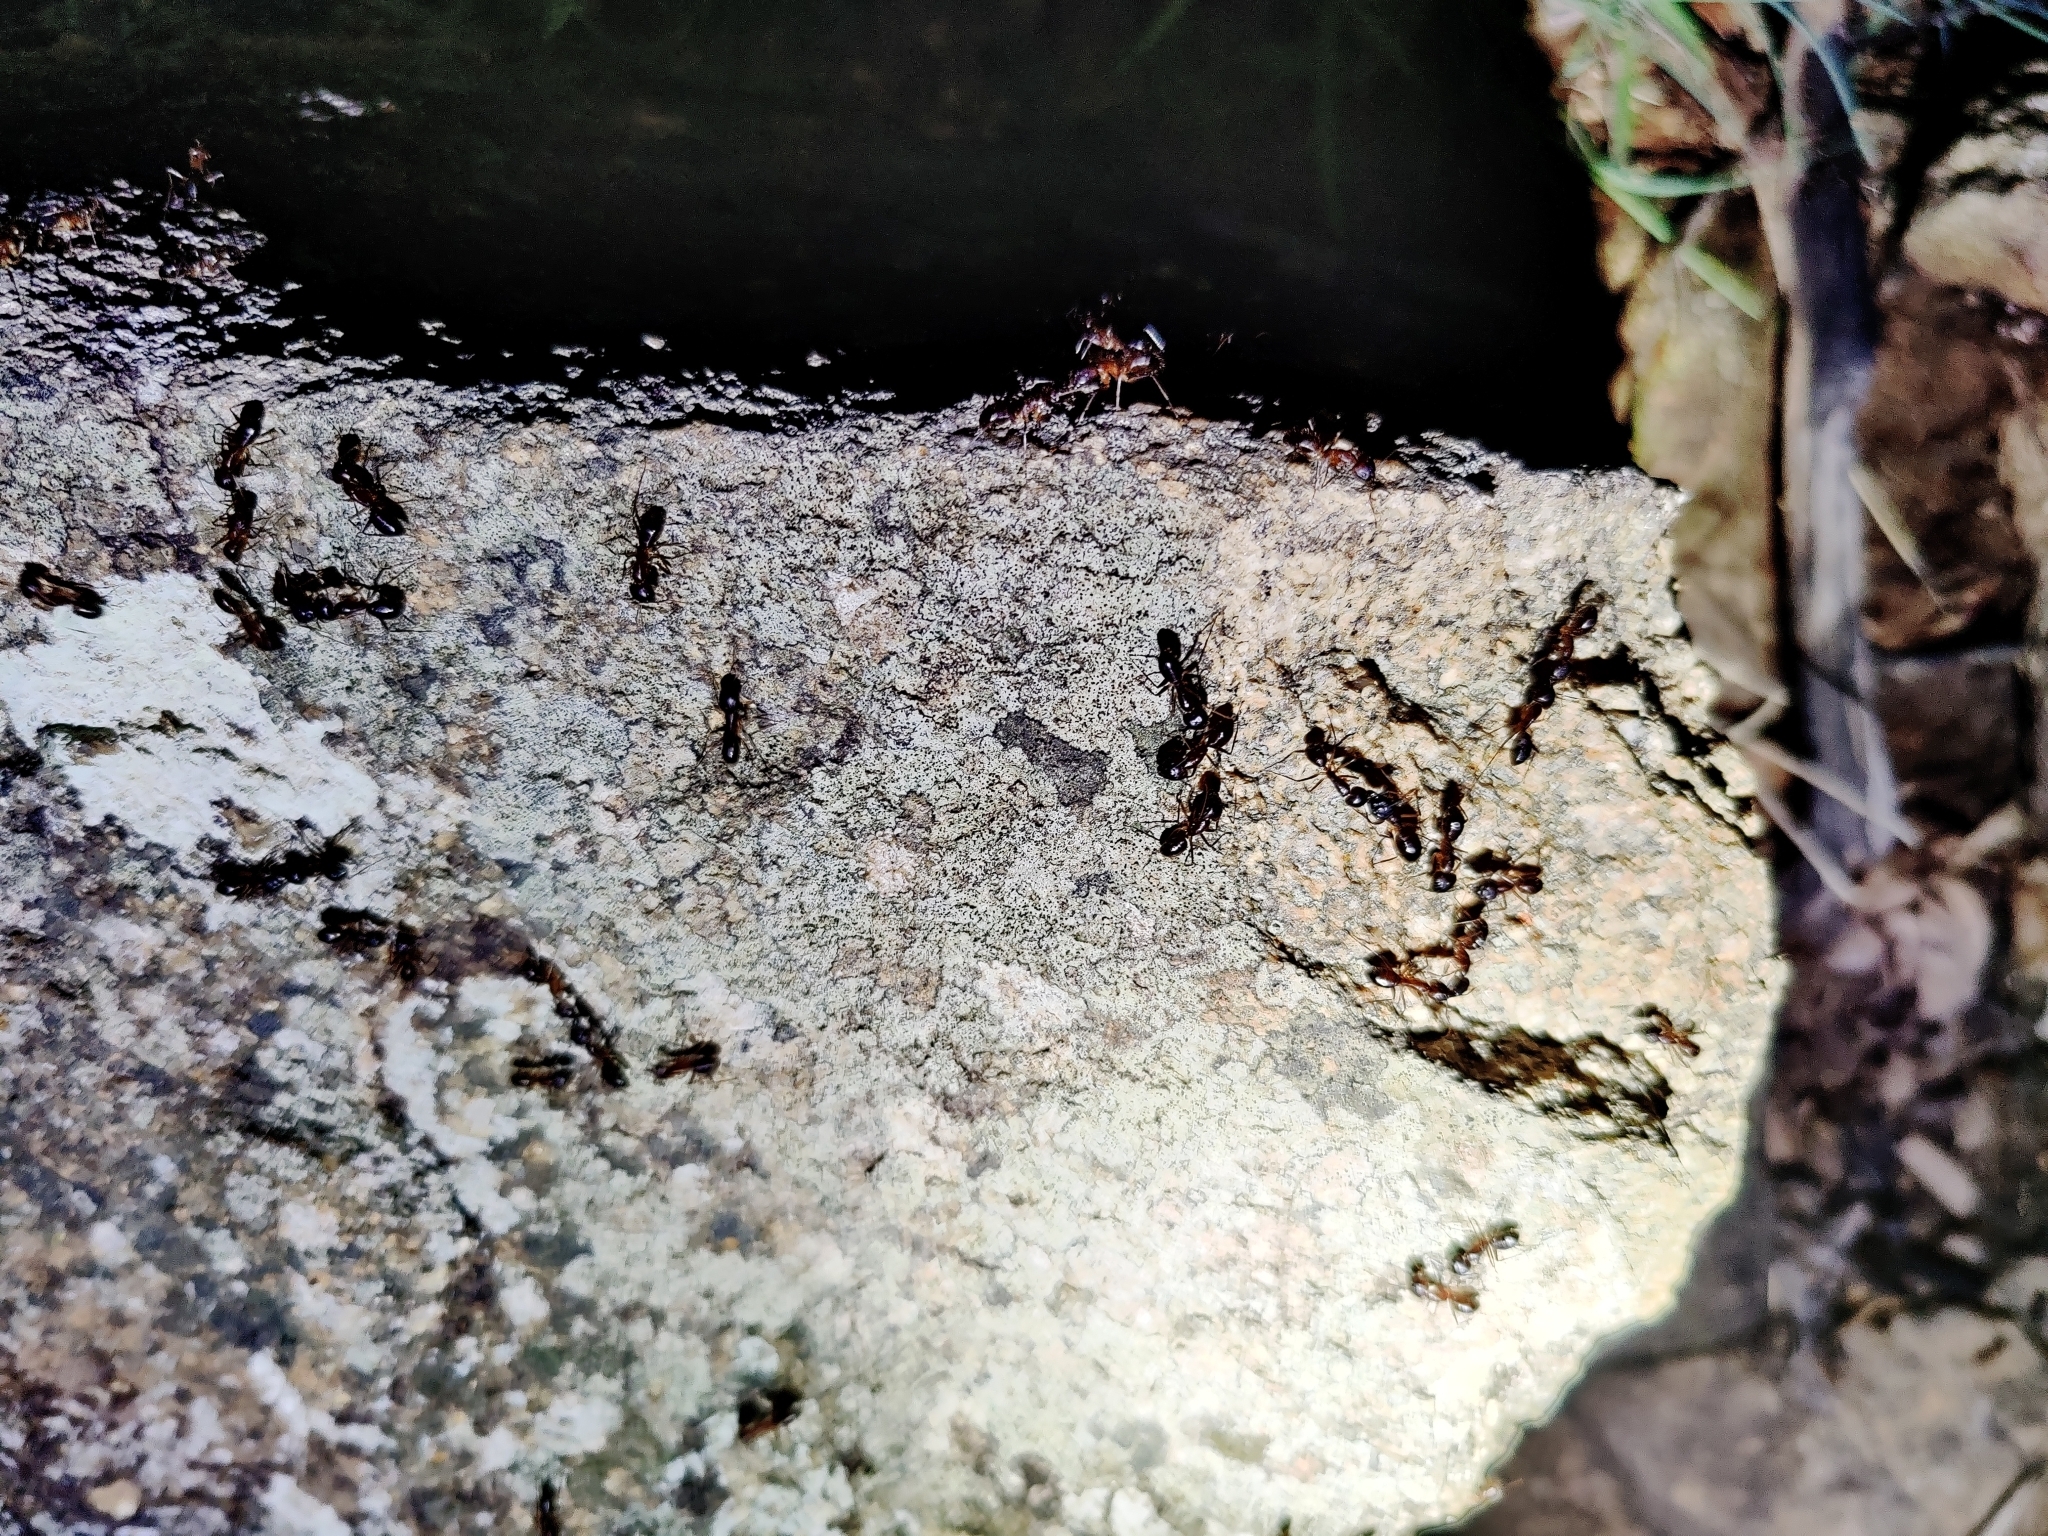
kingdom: Animalia
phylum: Arthropoda
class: Insecta
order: Hymenoptera
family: Formicidae
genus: Camponotus
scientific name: Camponotus compressus
